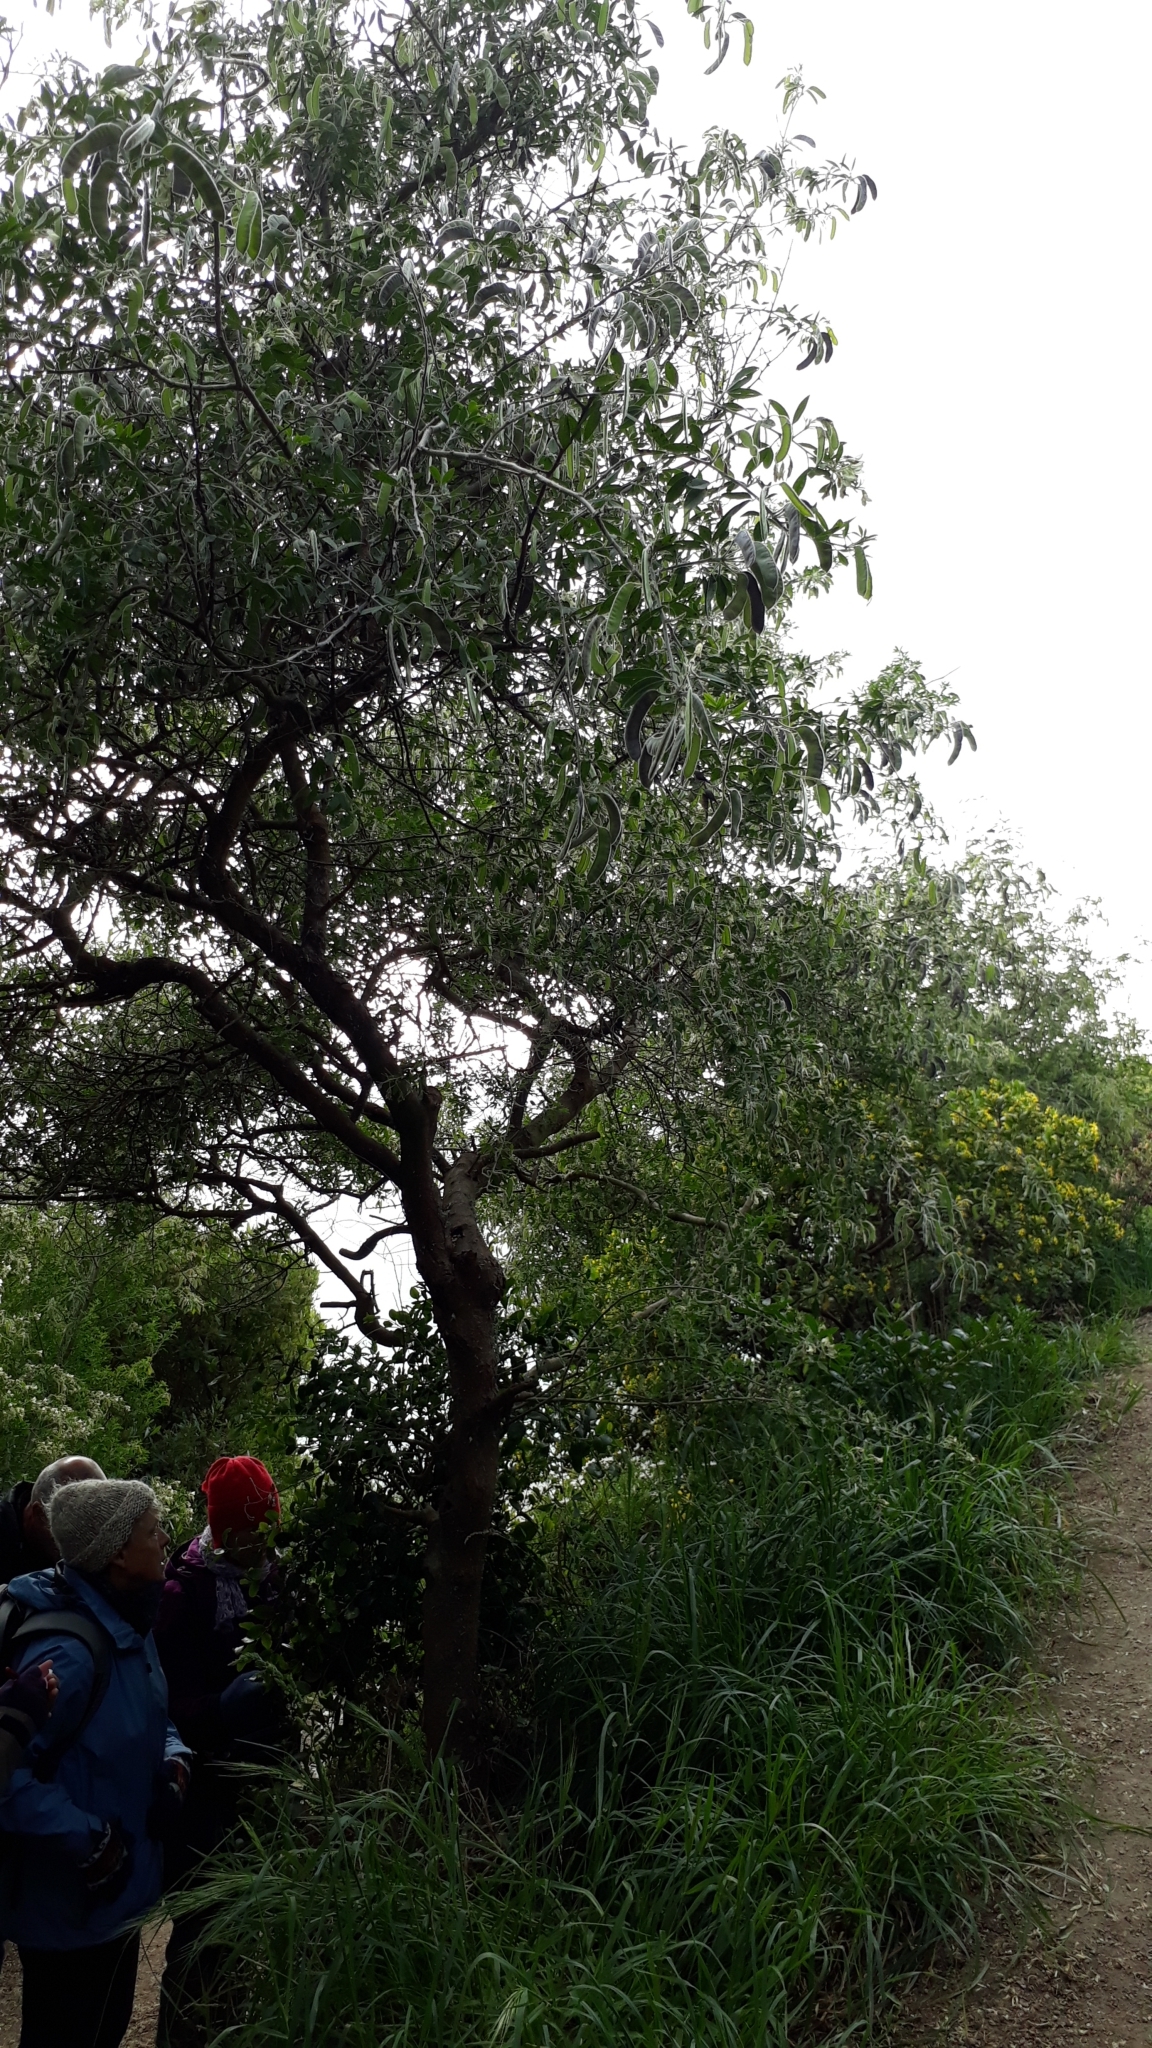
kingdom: Plantae
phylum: Tracheophyta
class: Magnoliopsida
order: Santalales
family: Loranthaceae
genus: Ileostylus
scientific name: Ileostylus micranthus
